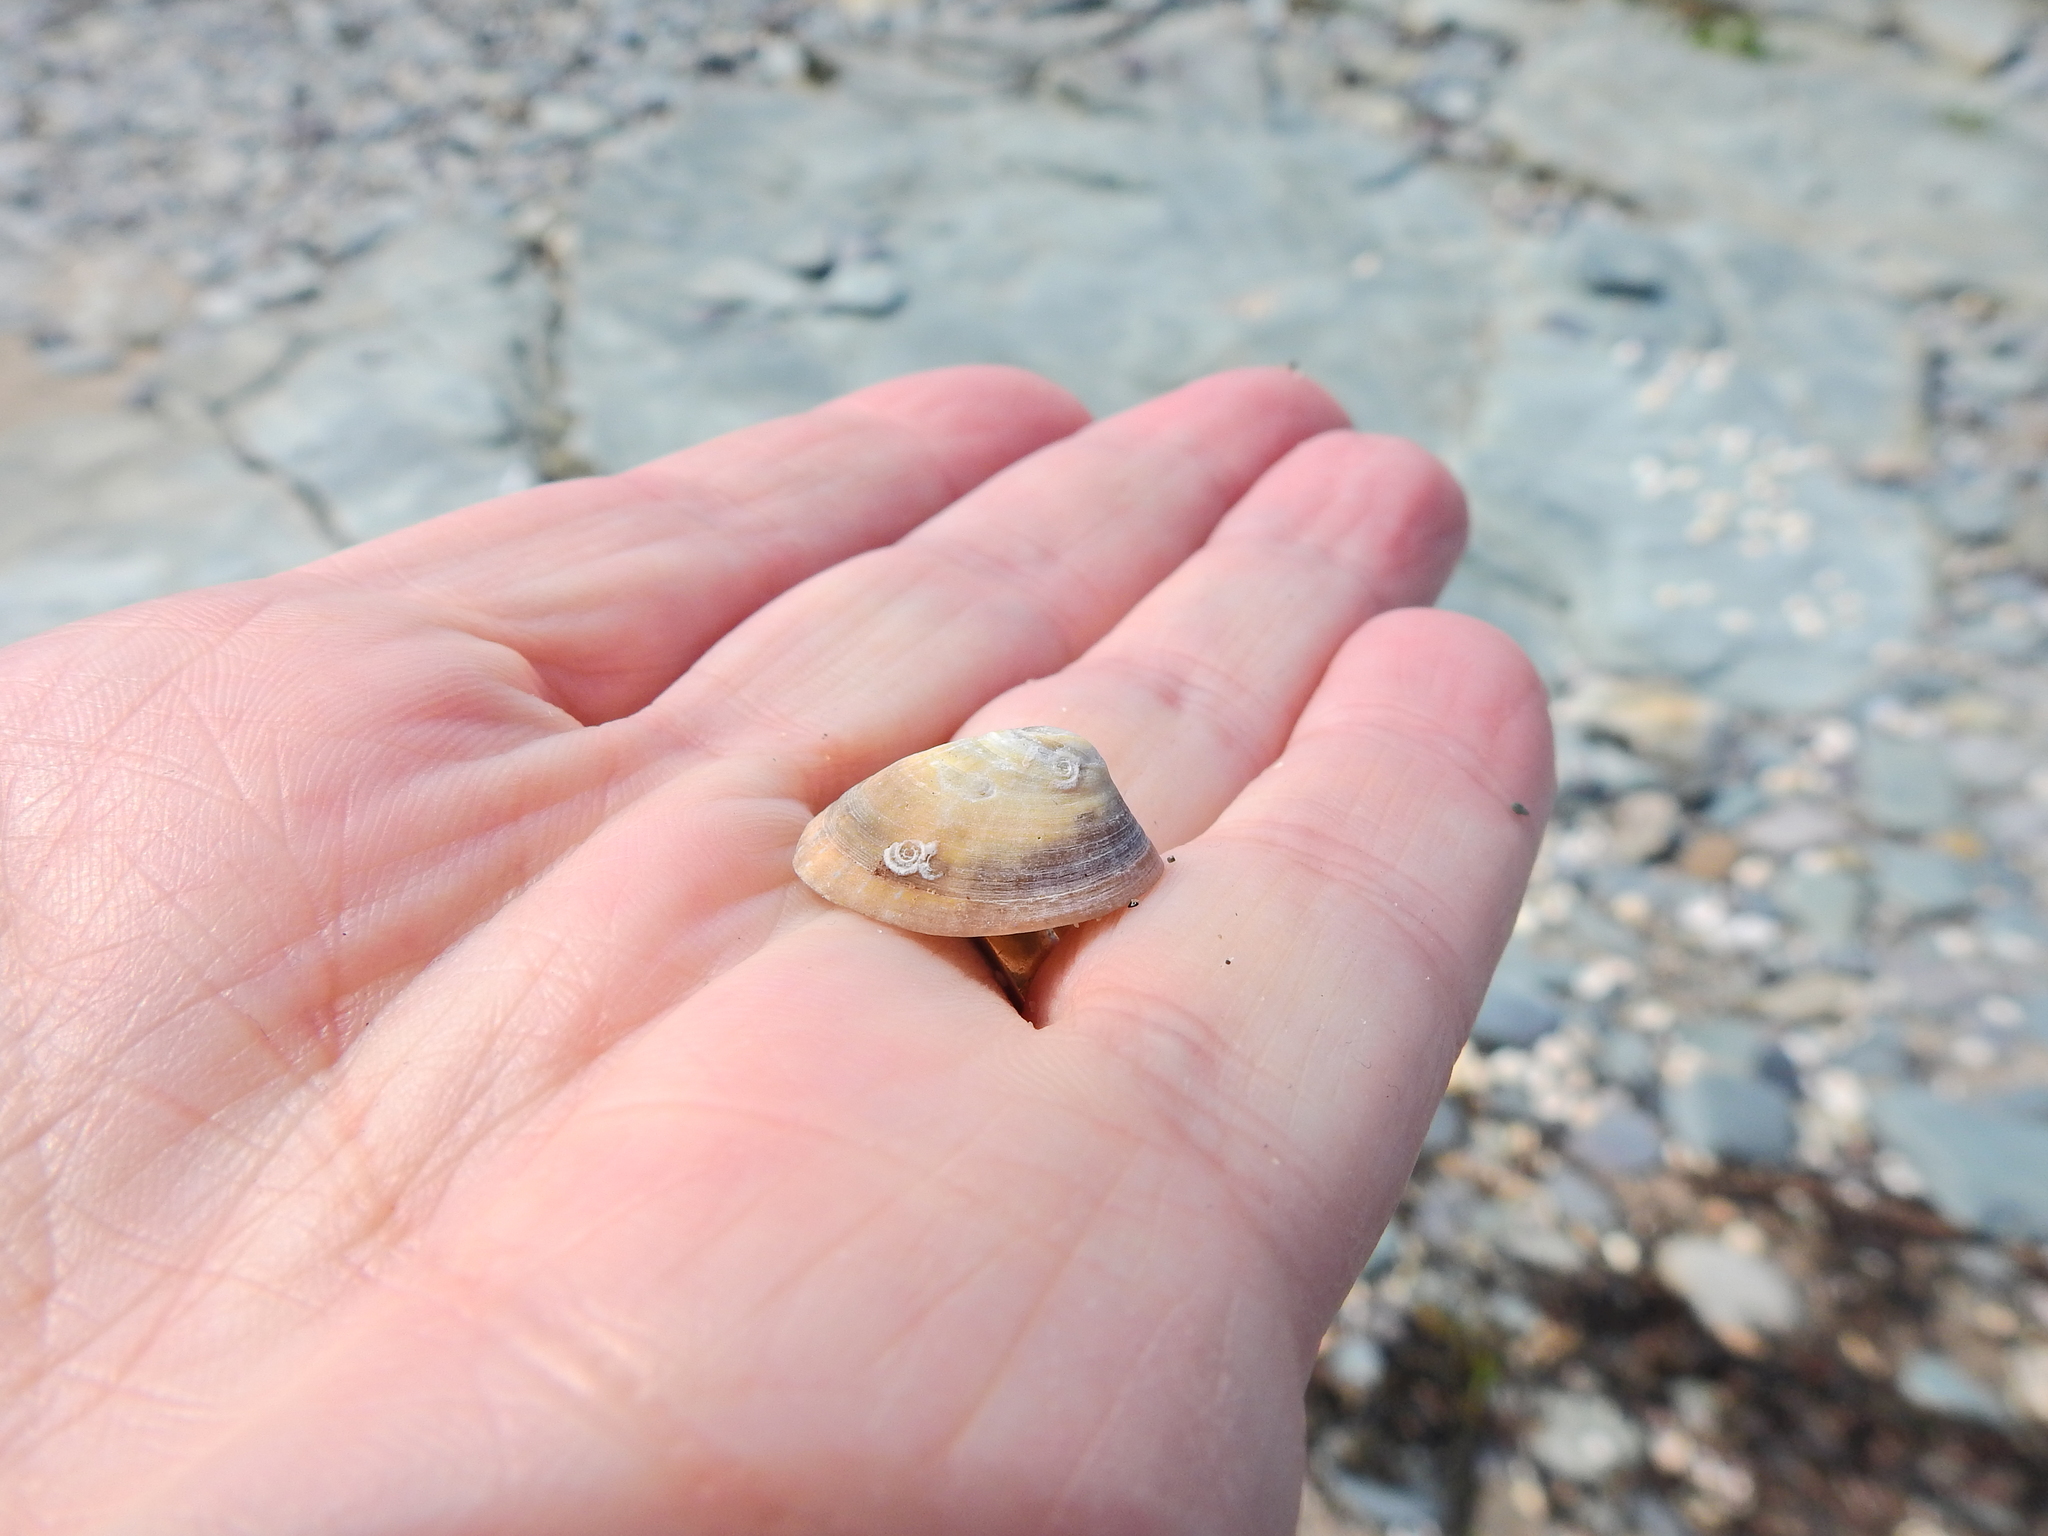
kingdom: Animalia
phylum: Mollusca
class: Gastropoda
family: Patellidae
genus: Patella
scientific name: Patella pellucida
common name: Blue-rayed limpet
